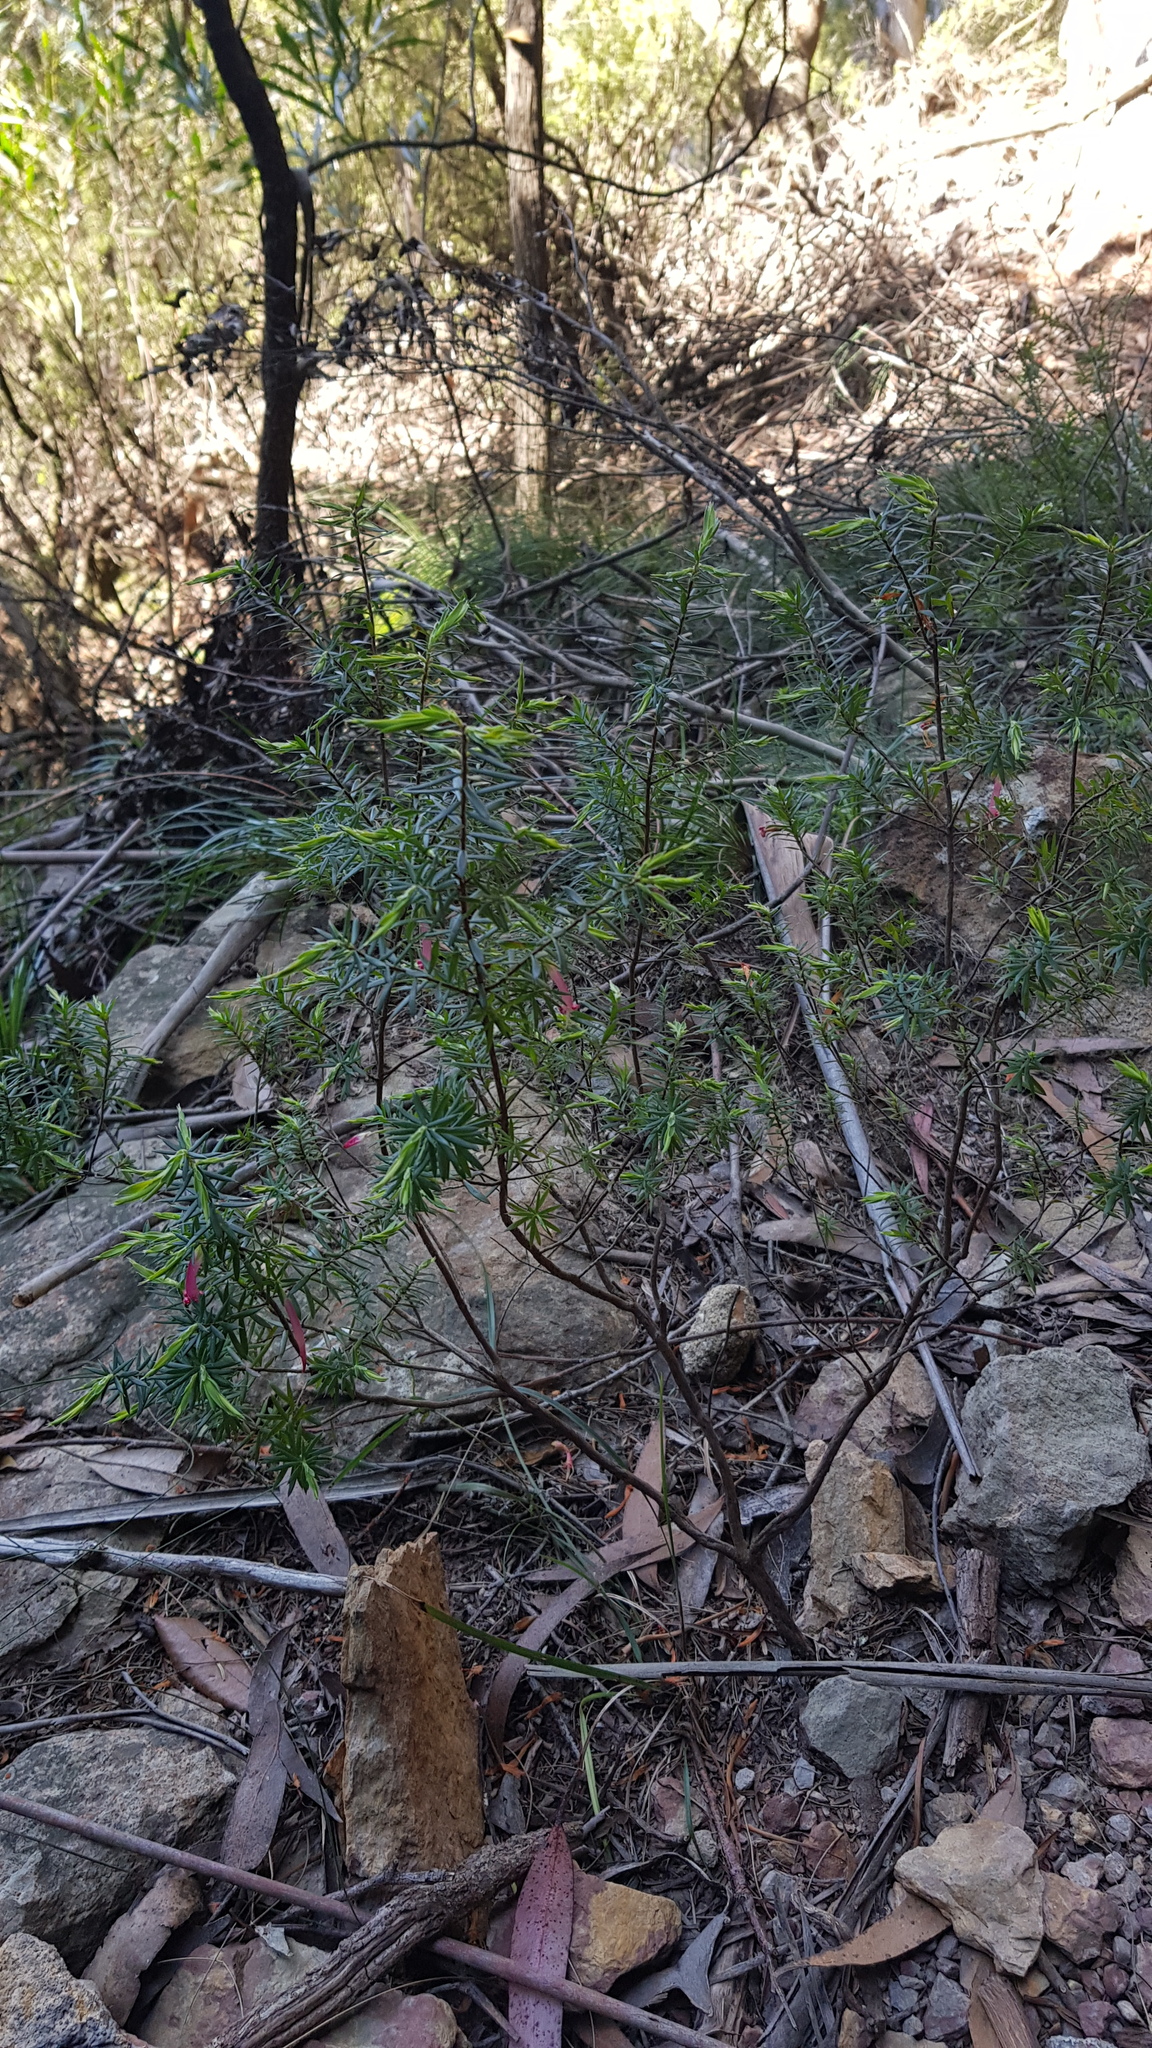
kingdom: Plantae
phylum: Tracheophyta
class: Magnoliopsida
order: Ericales
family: Ericaceae
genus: Styphelia
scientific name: Styphelia tubiflora
